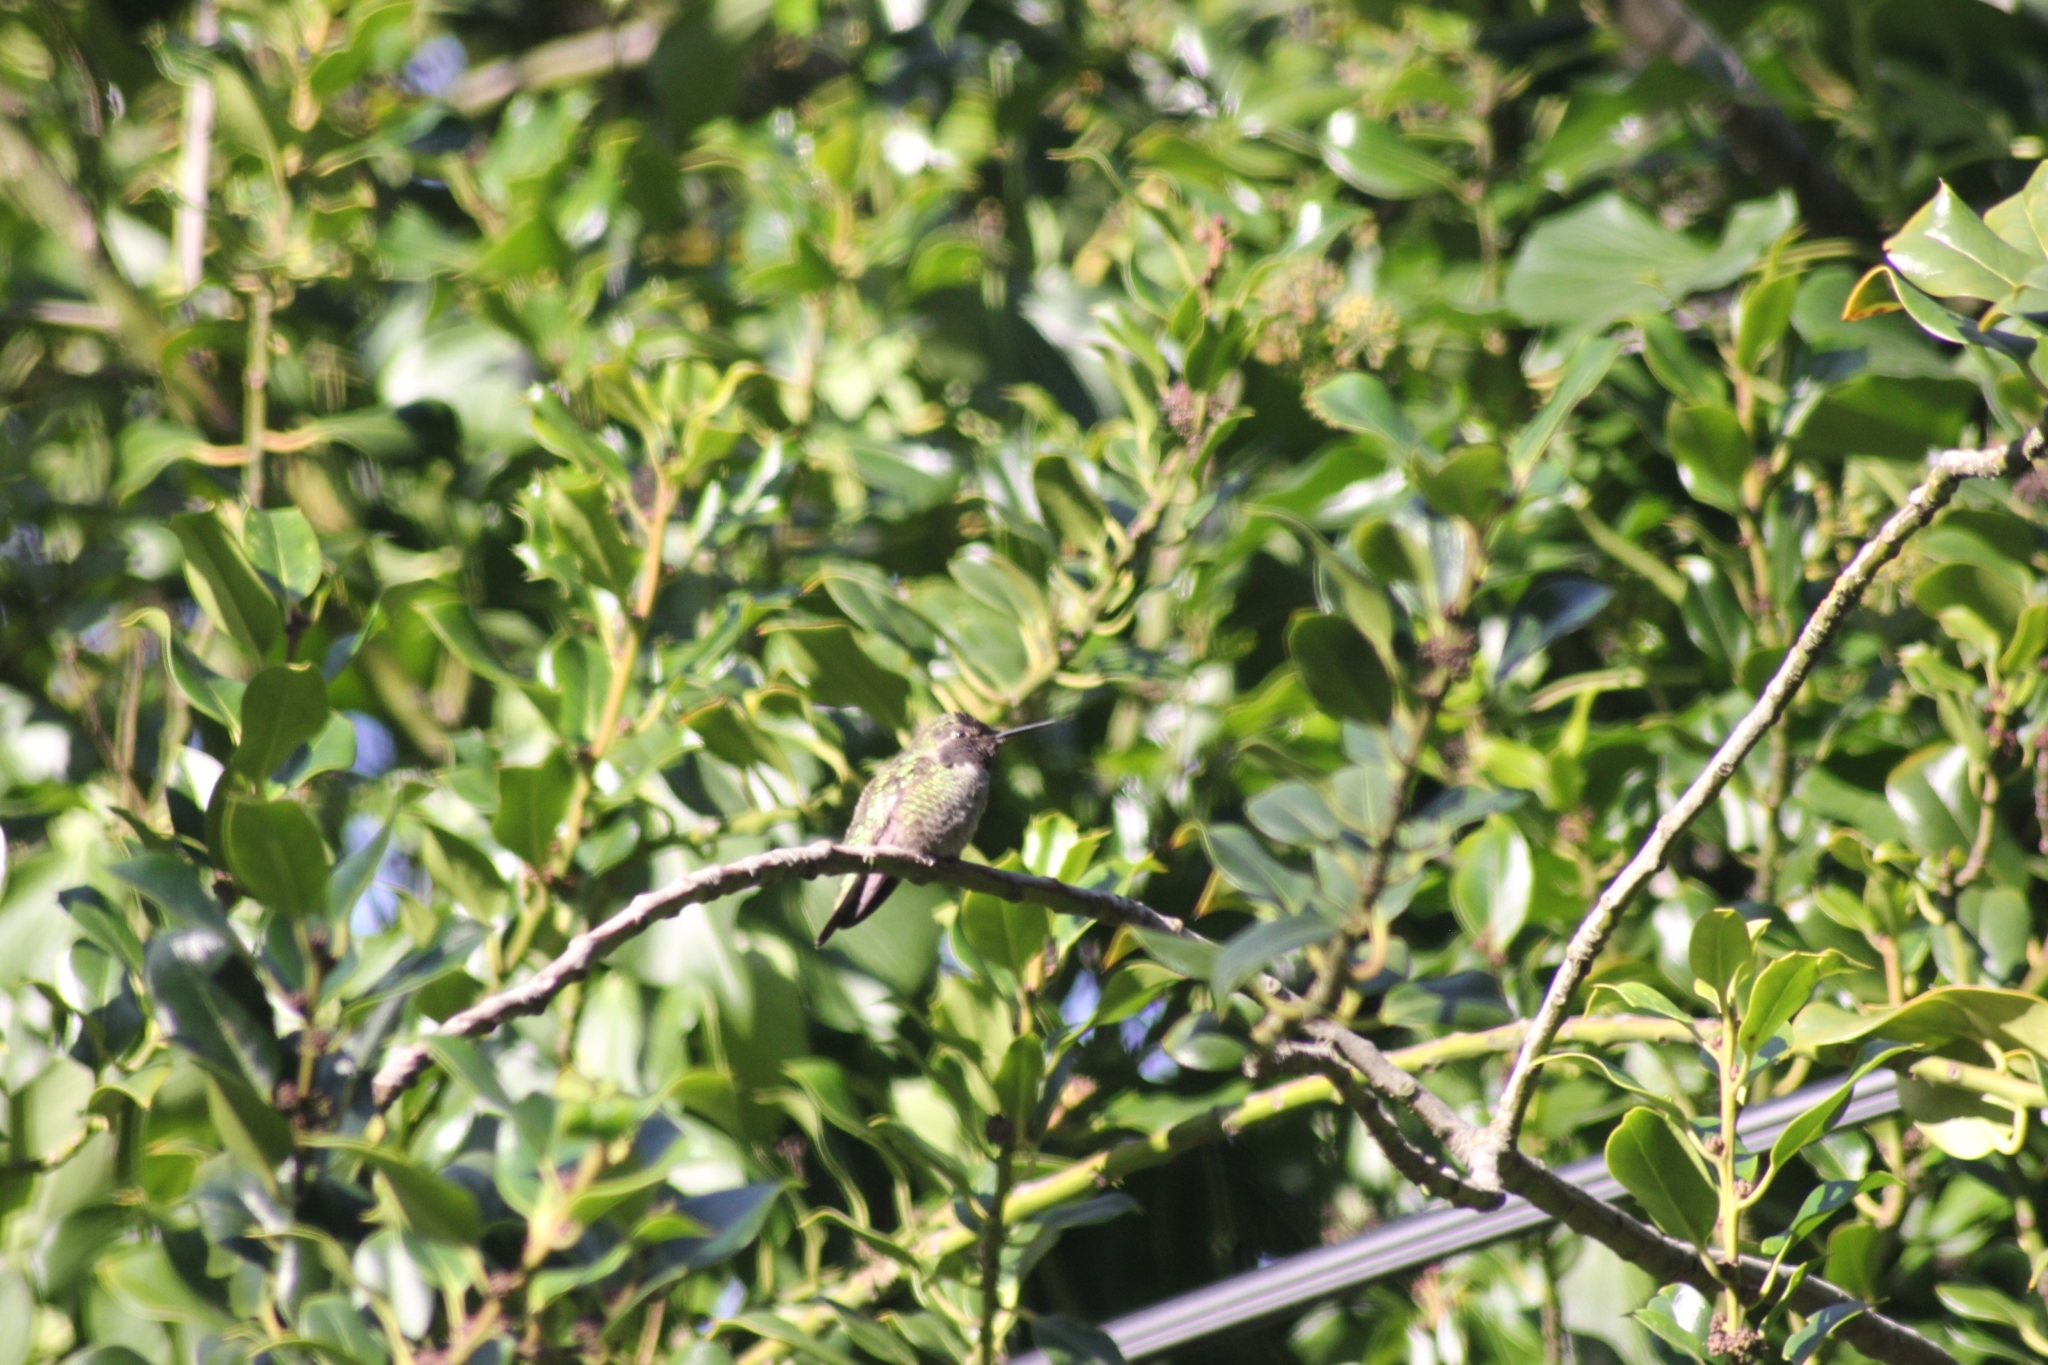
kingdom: Animalia
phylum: Chordata
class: Aves
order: Apodiformes
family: Trochilidae
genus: Calypte
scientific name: Calypte anna
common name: Anna's hummingbird
